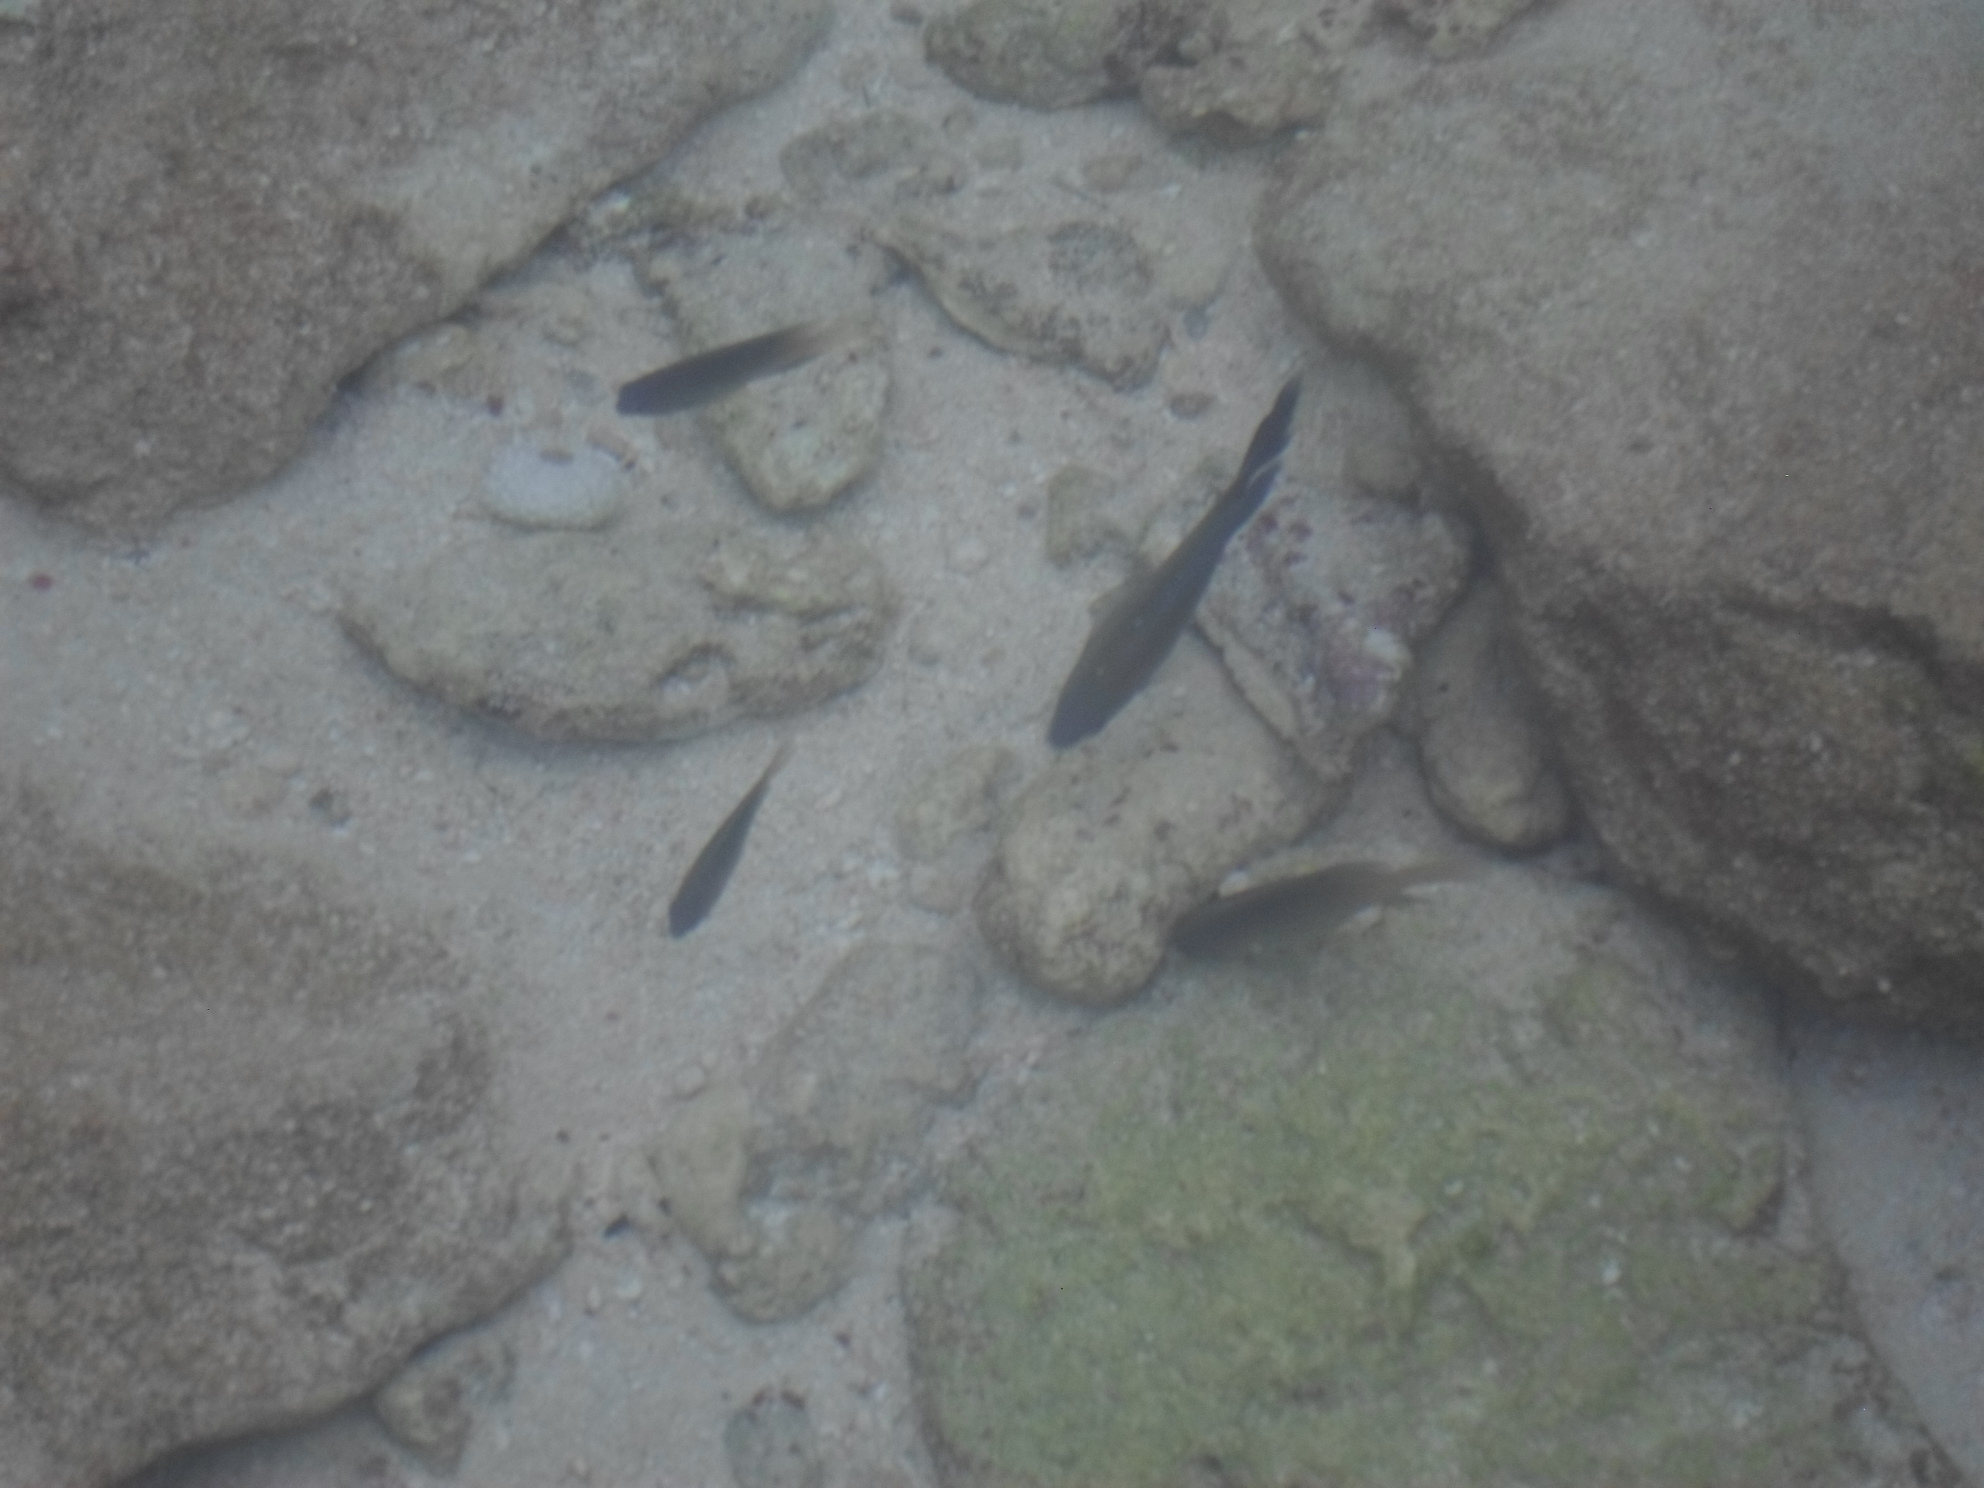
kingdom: Animalia
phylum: Chordata
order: Perciformes
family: Pomacentridae
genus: Stegastes
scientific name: Stegastes leucostictus
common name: Beaugregory
